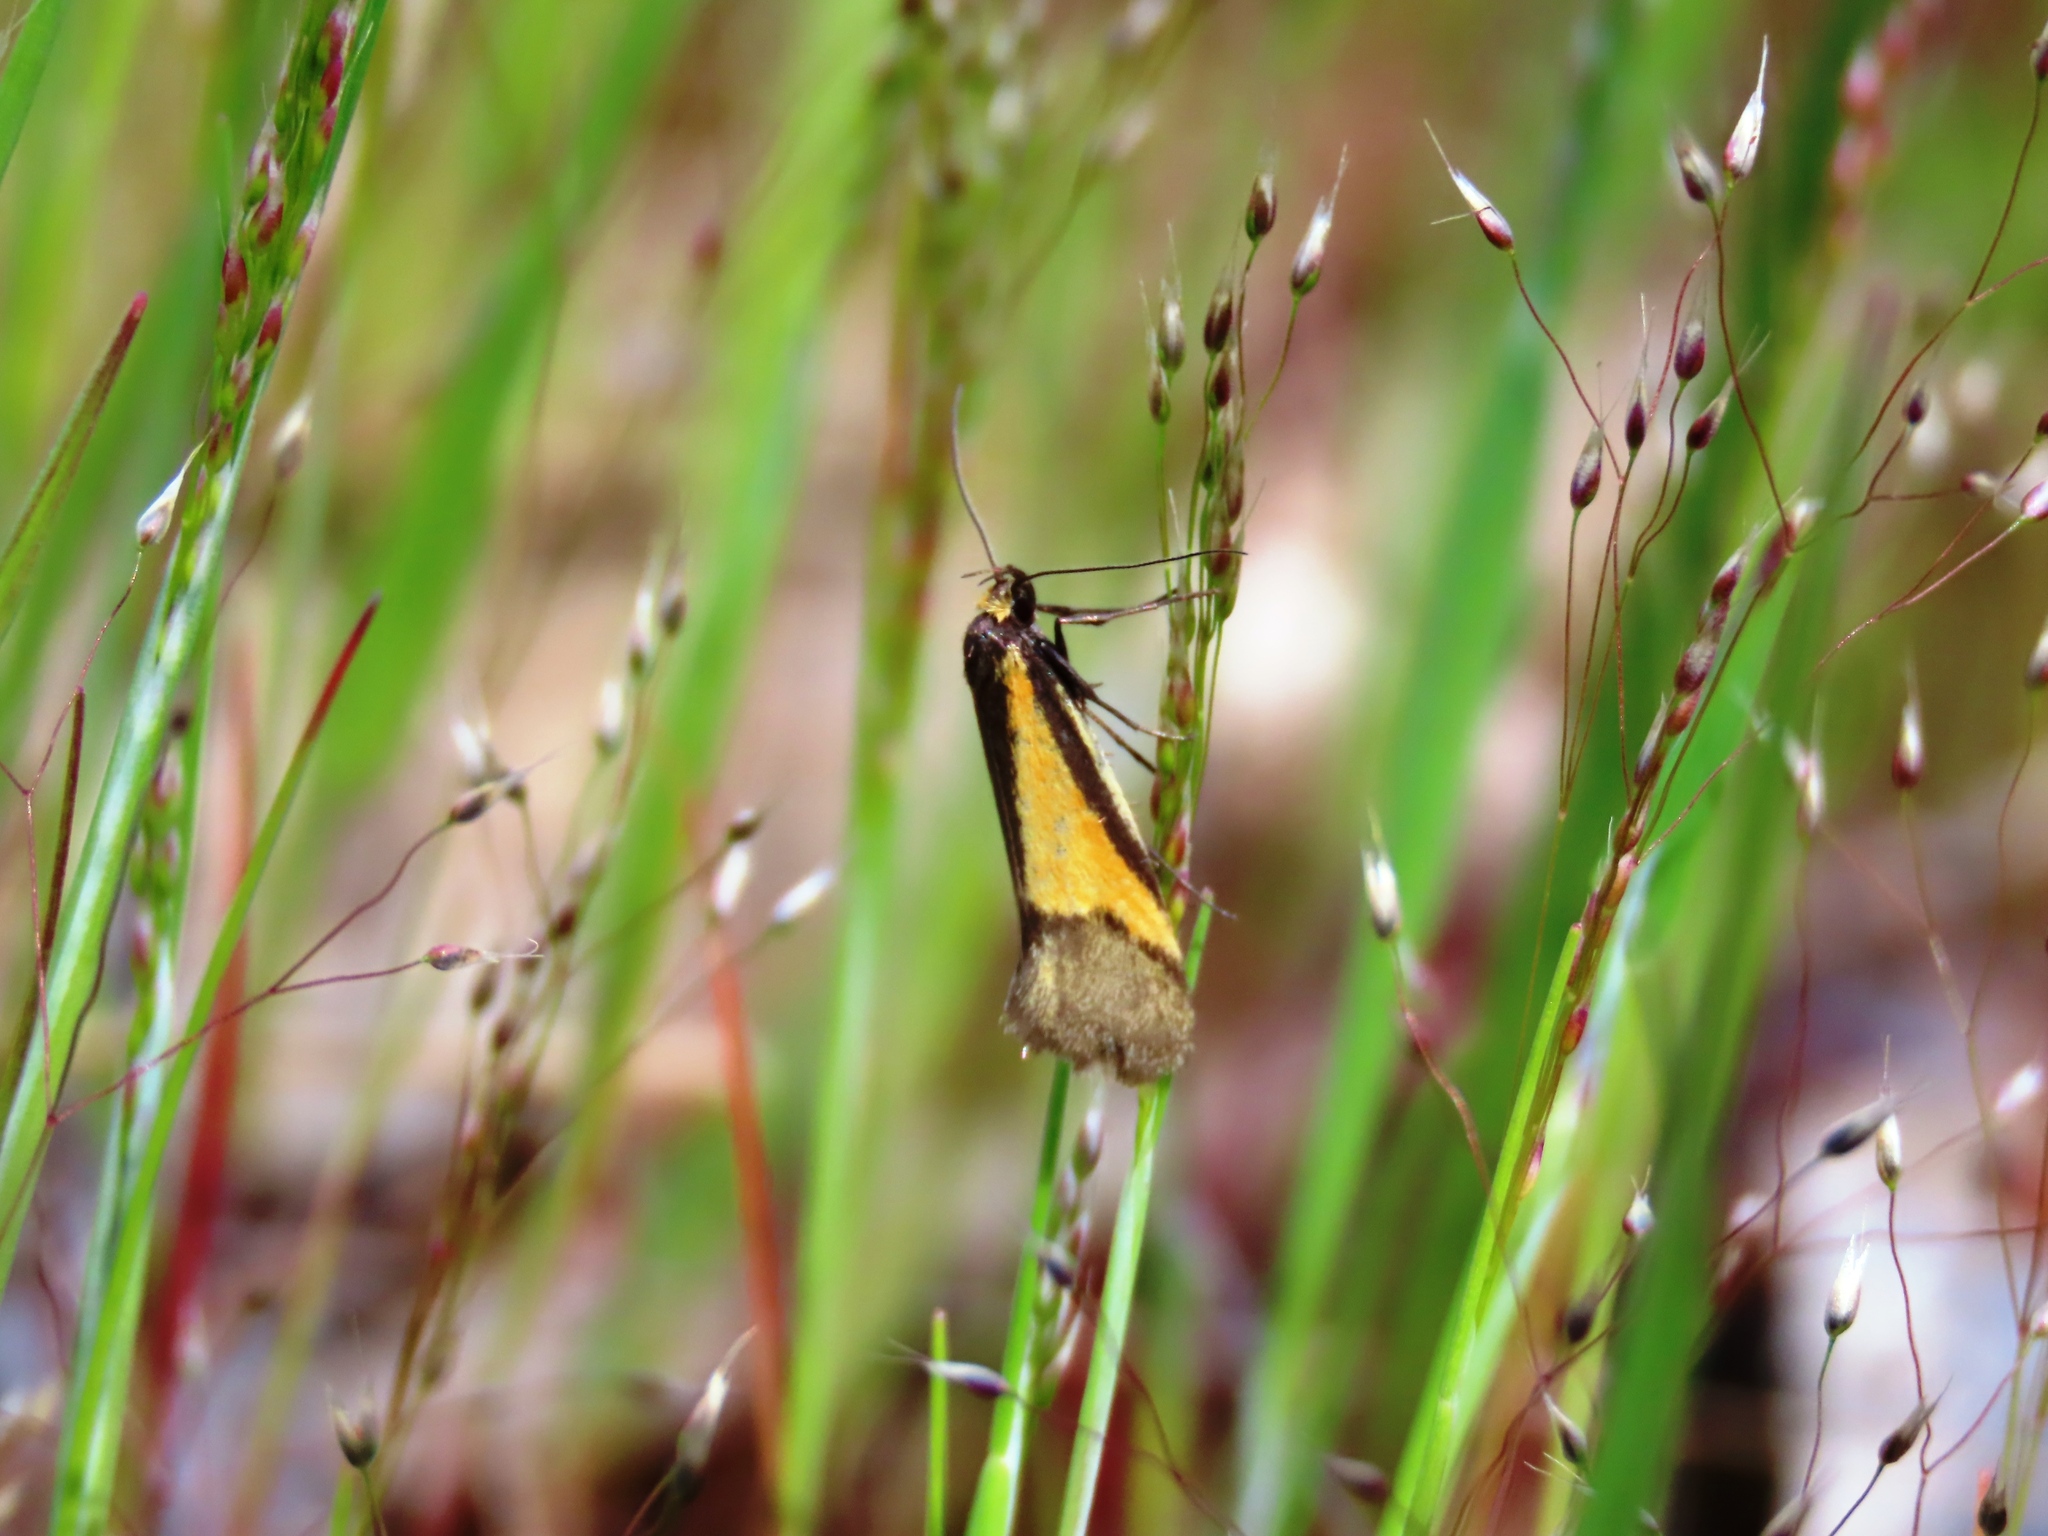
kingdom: Animalia
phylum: Arthropoda
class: Insecta
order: Lepidoptera
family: Oecophoridae
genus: Philobota
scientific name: Philobota arabella
